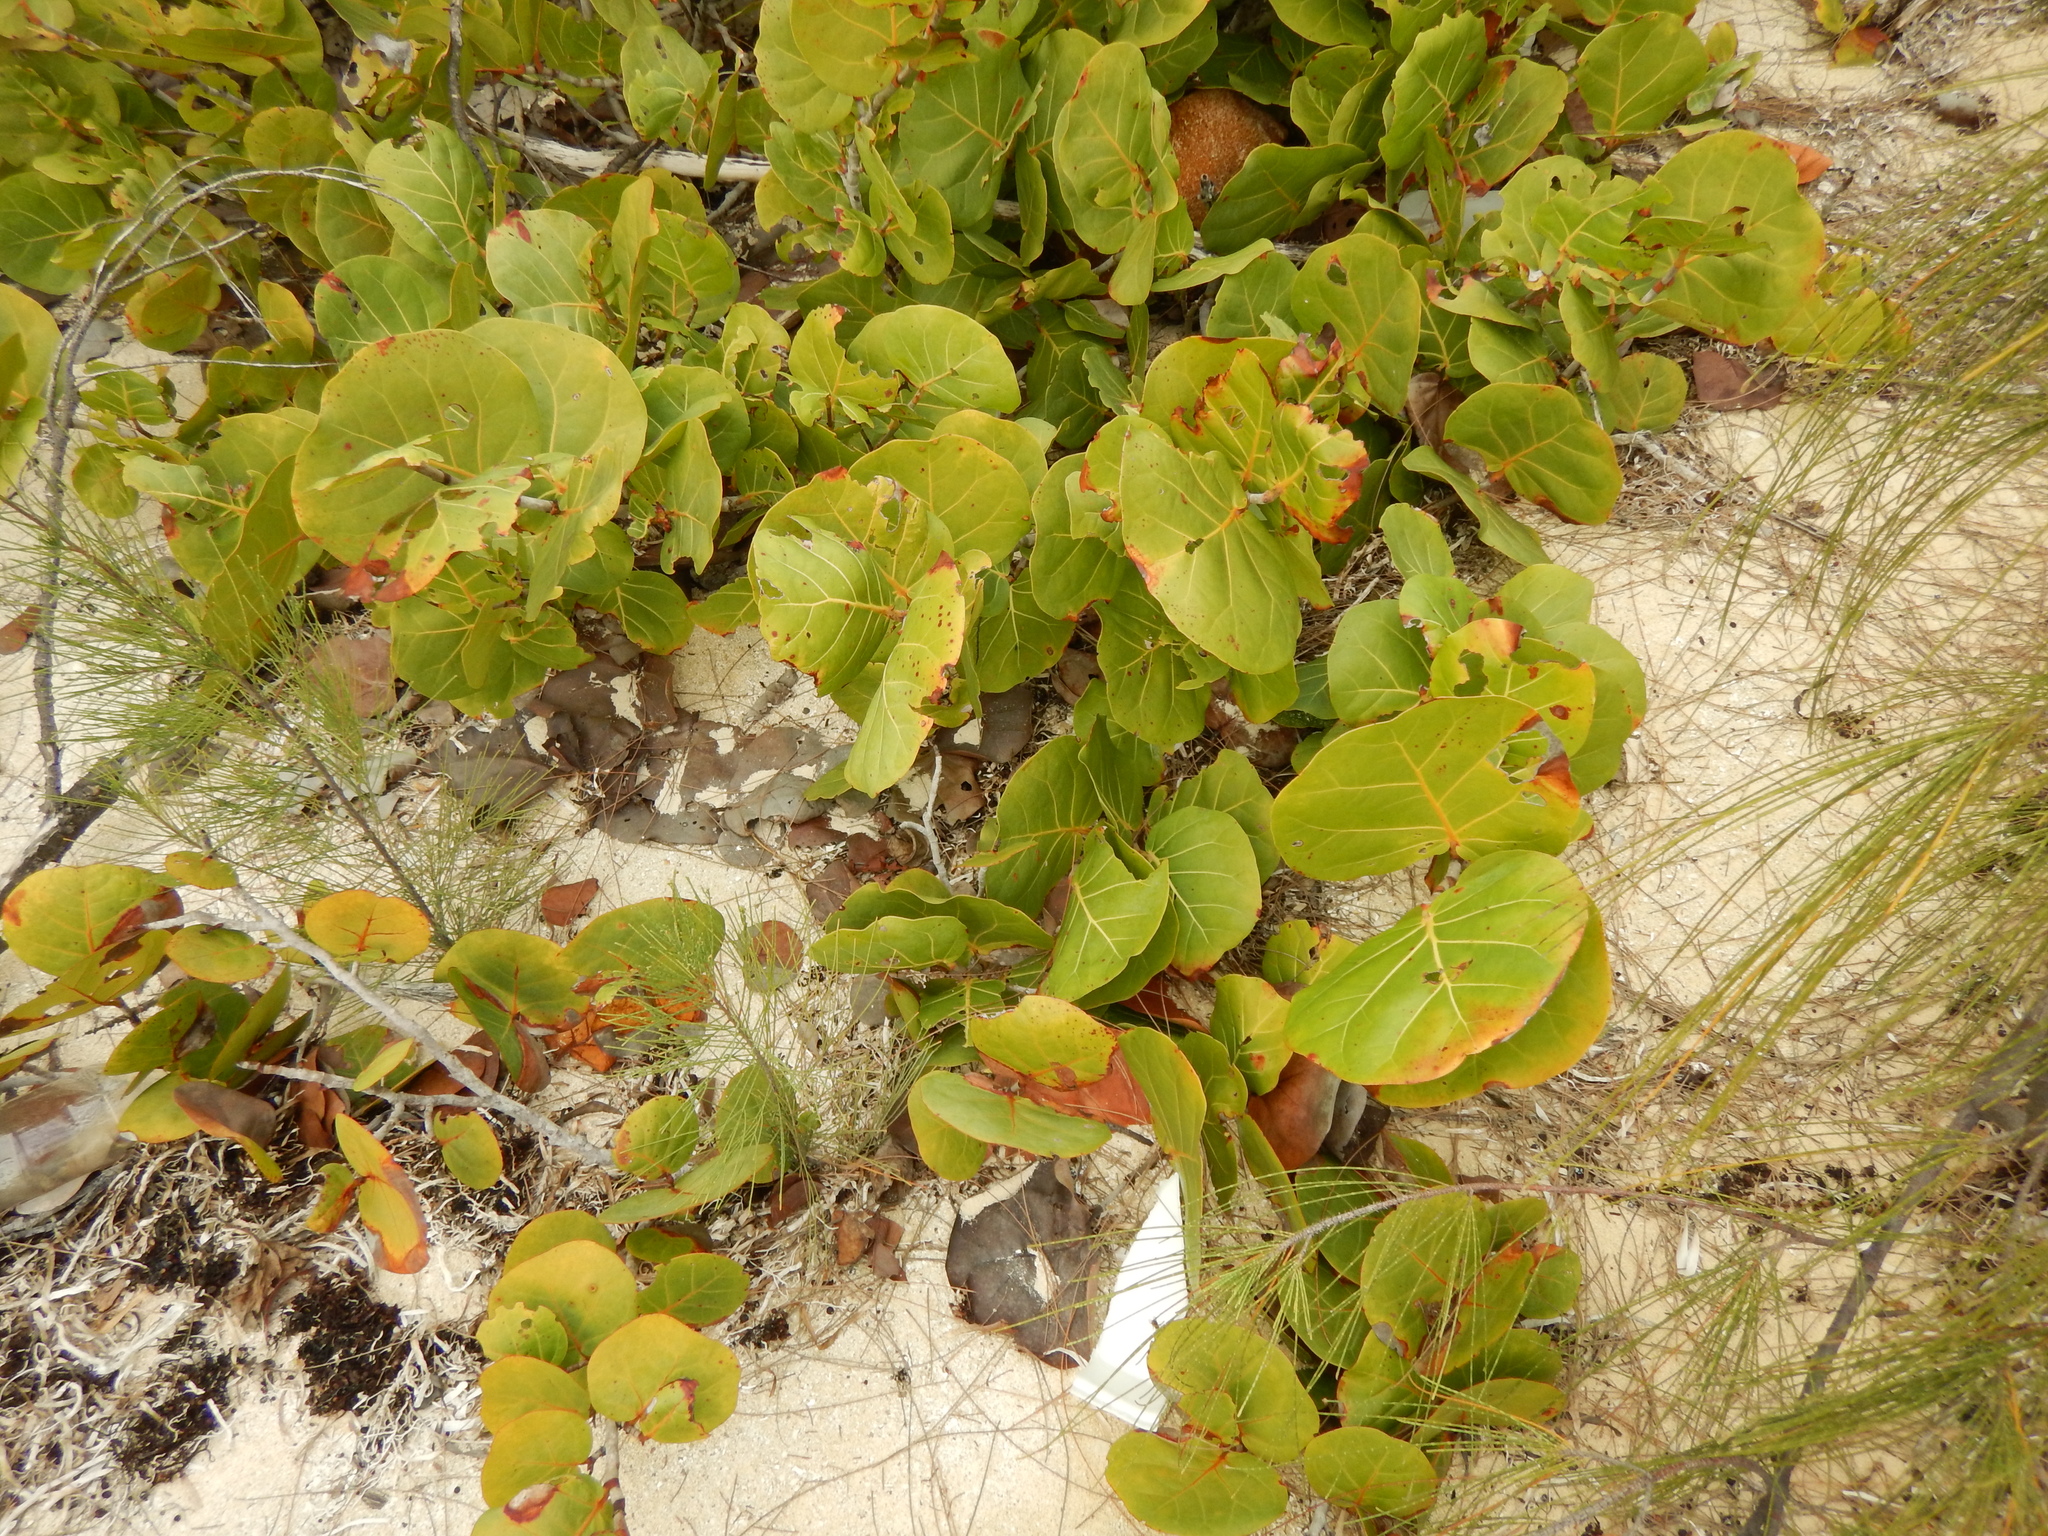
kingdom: Plantae
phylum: Tracheophyta
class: Magnoliopsida
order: Caryophyllales
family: Polygonaceae
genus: Coccoloba
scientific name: Coccoloba uvifera
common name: Seagrape
